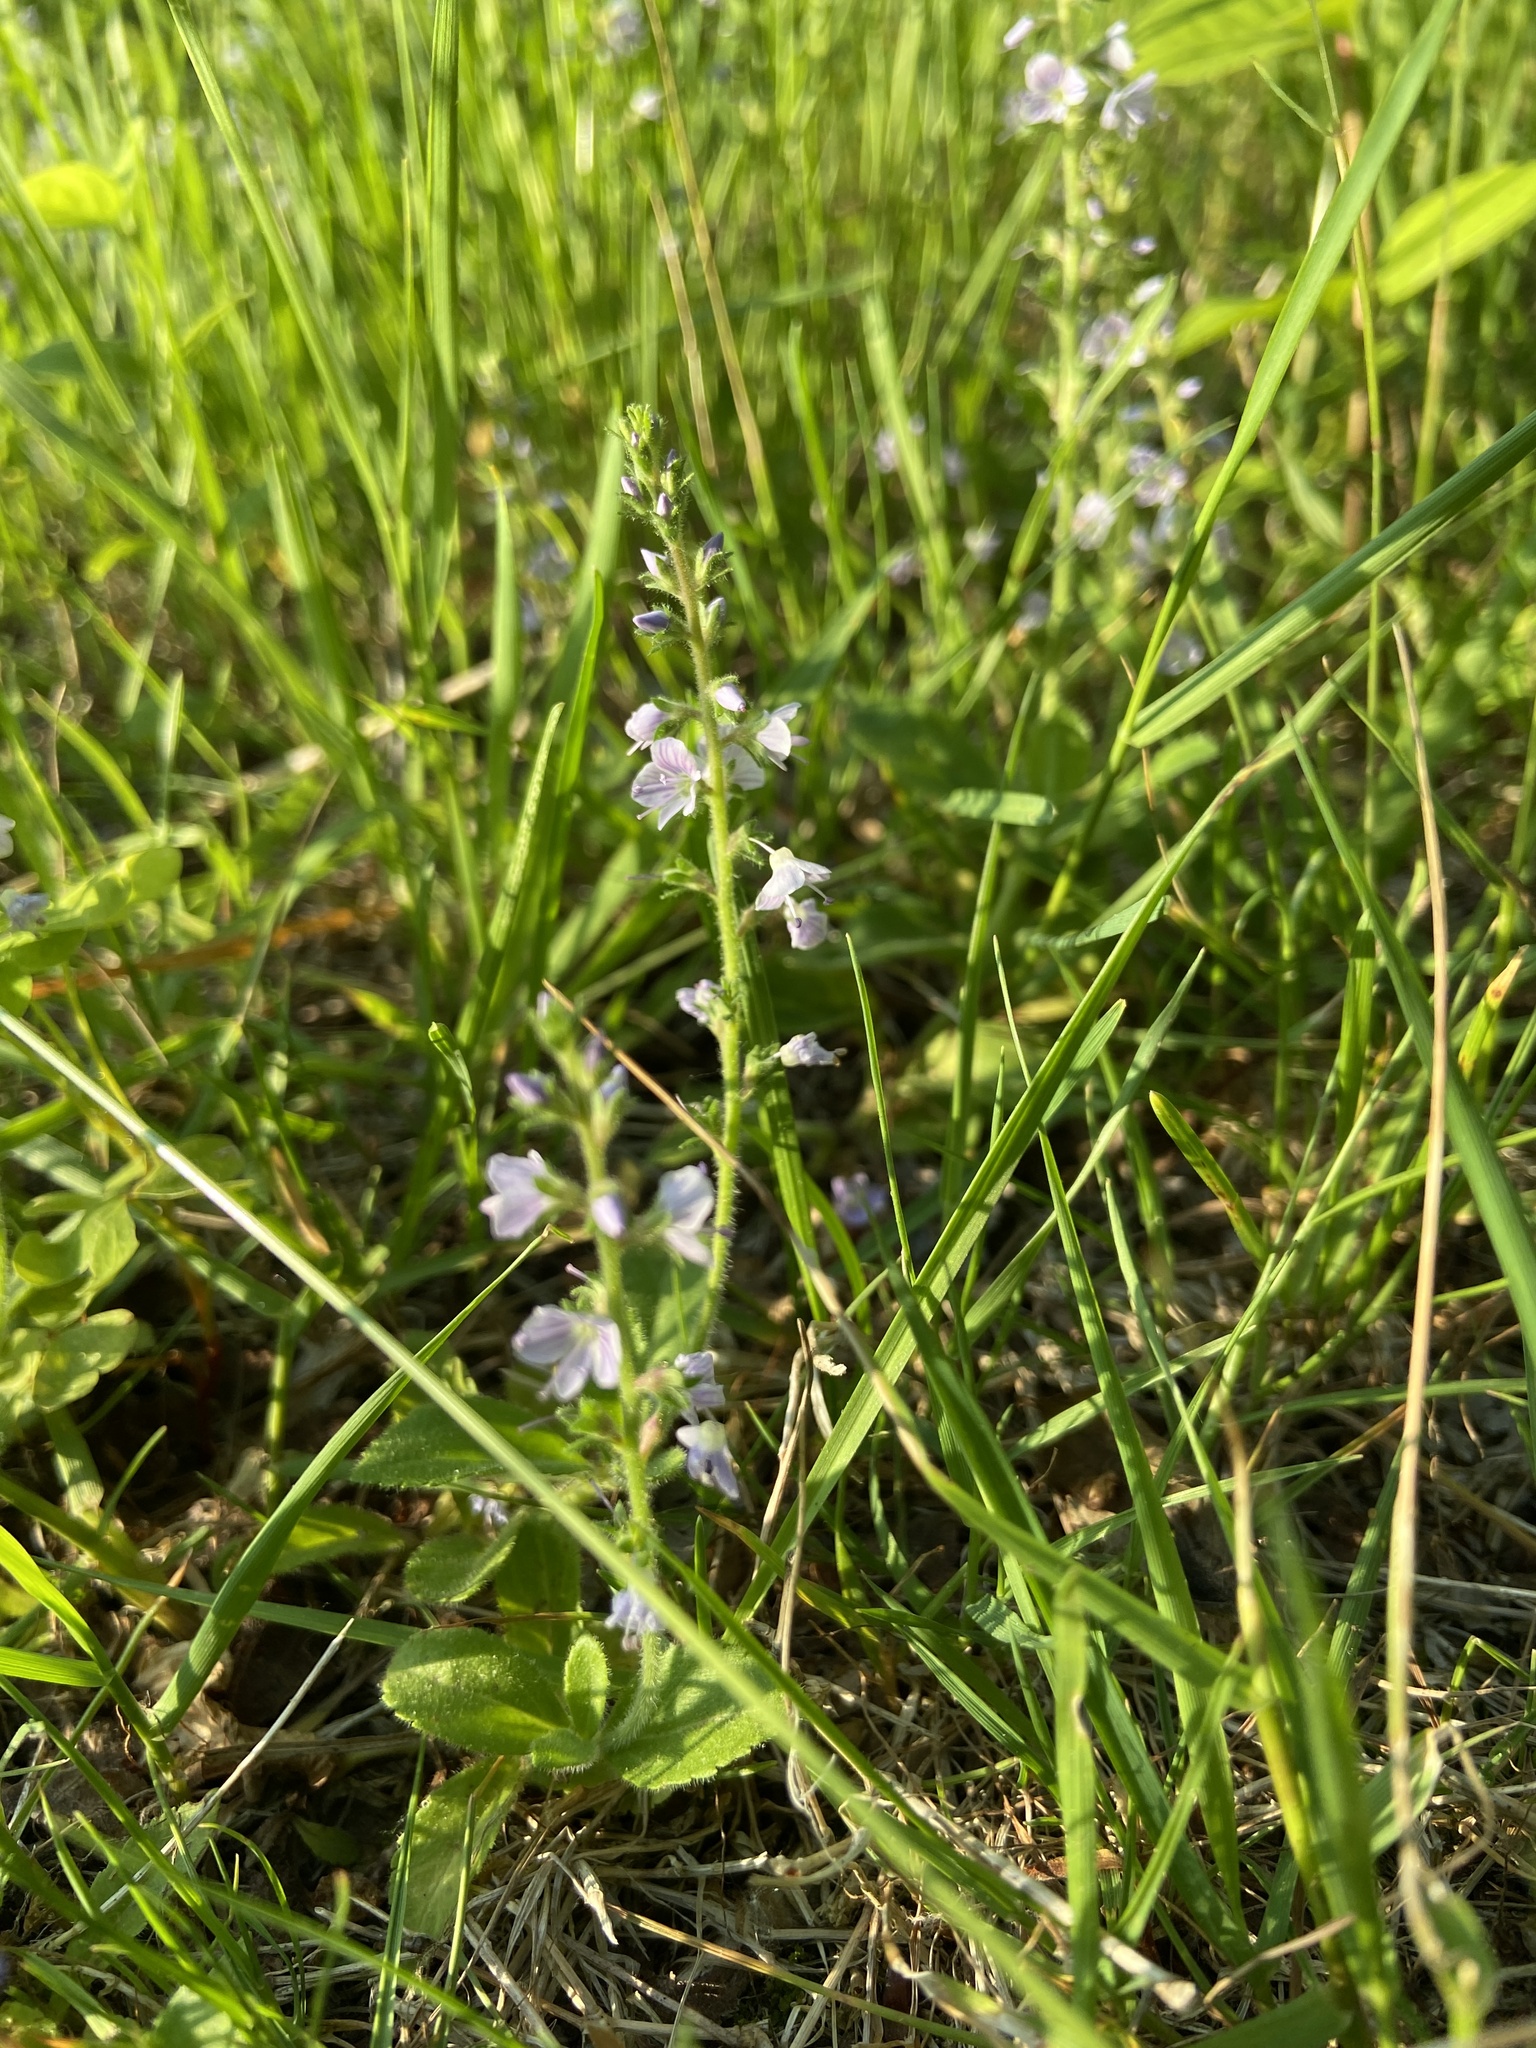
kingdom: Plantae
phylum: Tracheophyta
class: Magnoliopsida
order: Lamiales
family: Plantaginaceae
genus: Veronica
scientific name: Veronica officinalis
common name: Common speedwell
